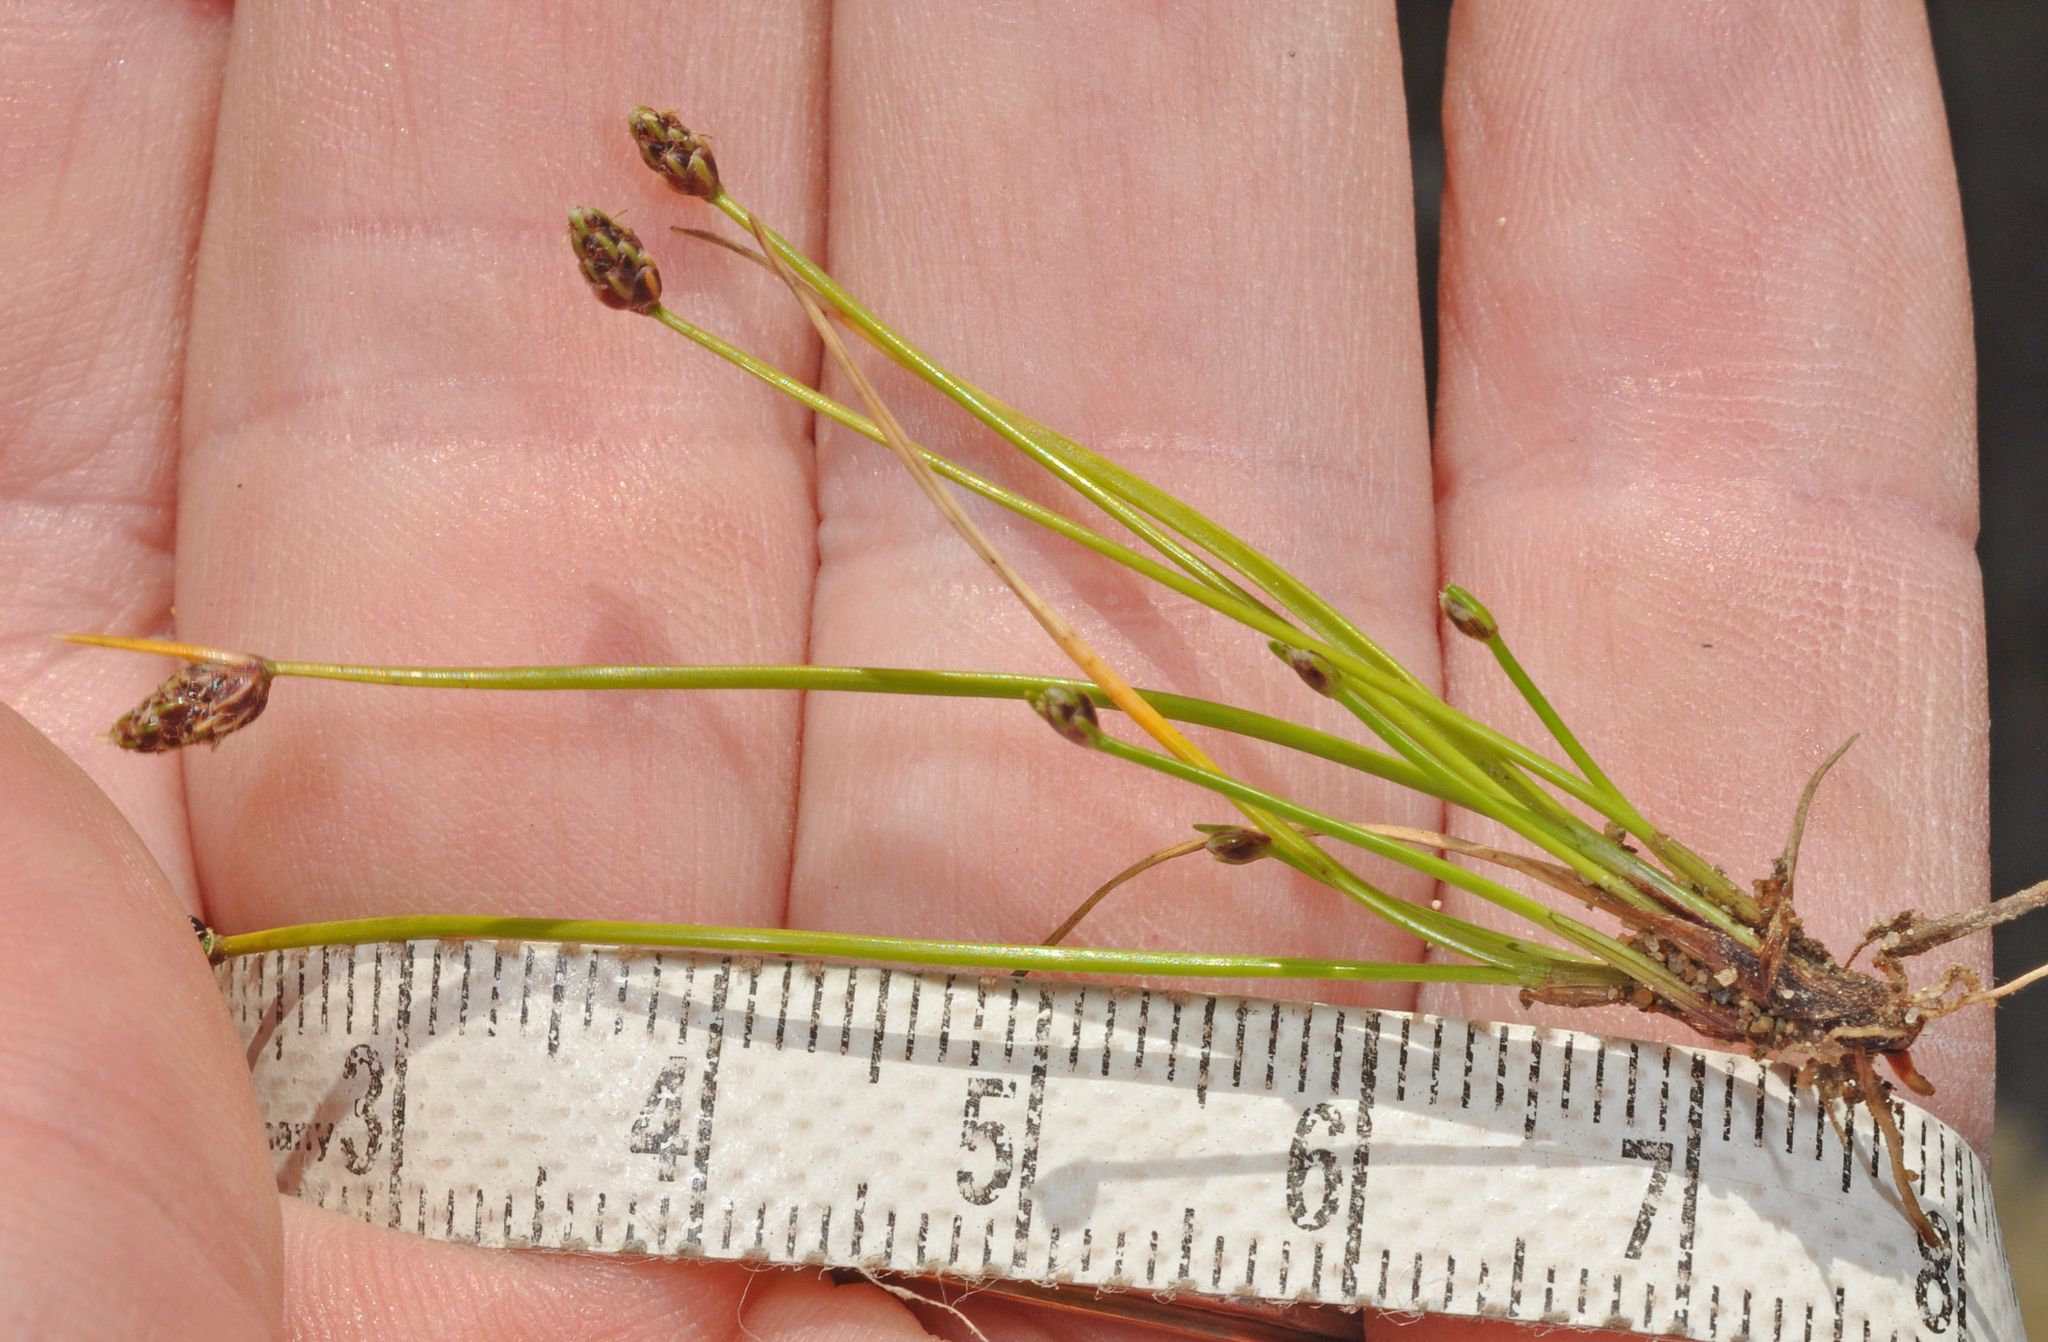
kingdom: Plantae
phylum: Tracheophyta
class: Liliopsida
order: Poales
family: Cyperaceae
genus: Isolepis
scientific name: Isolepis cernua
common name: Slender club-rush
